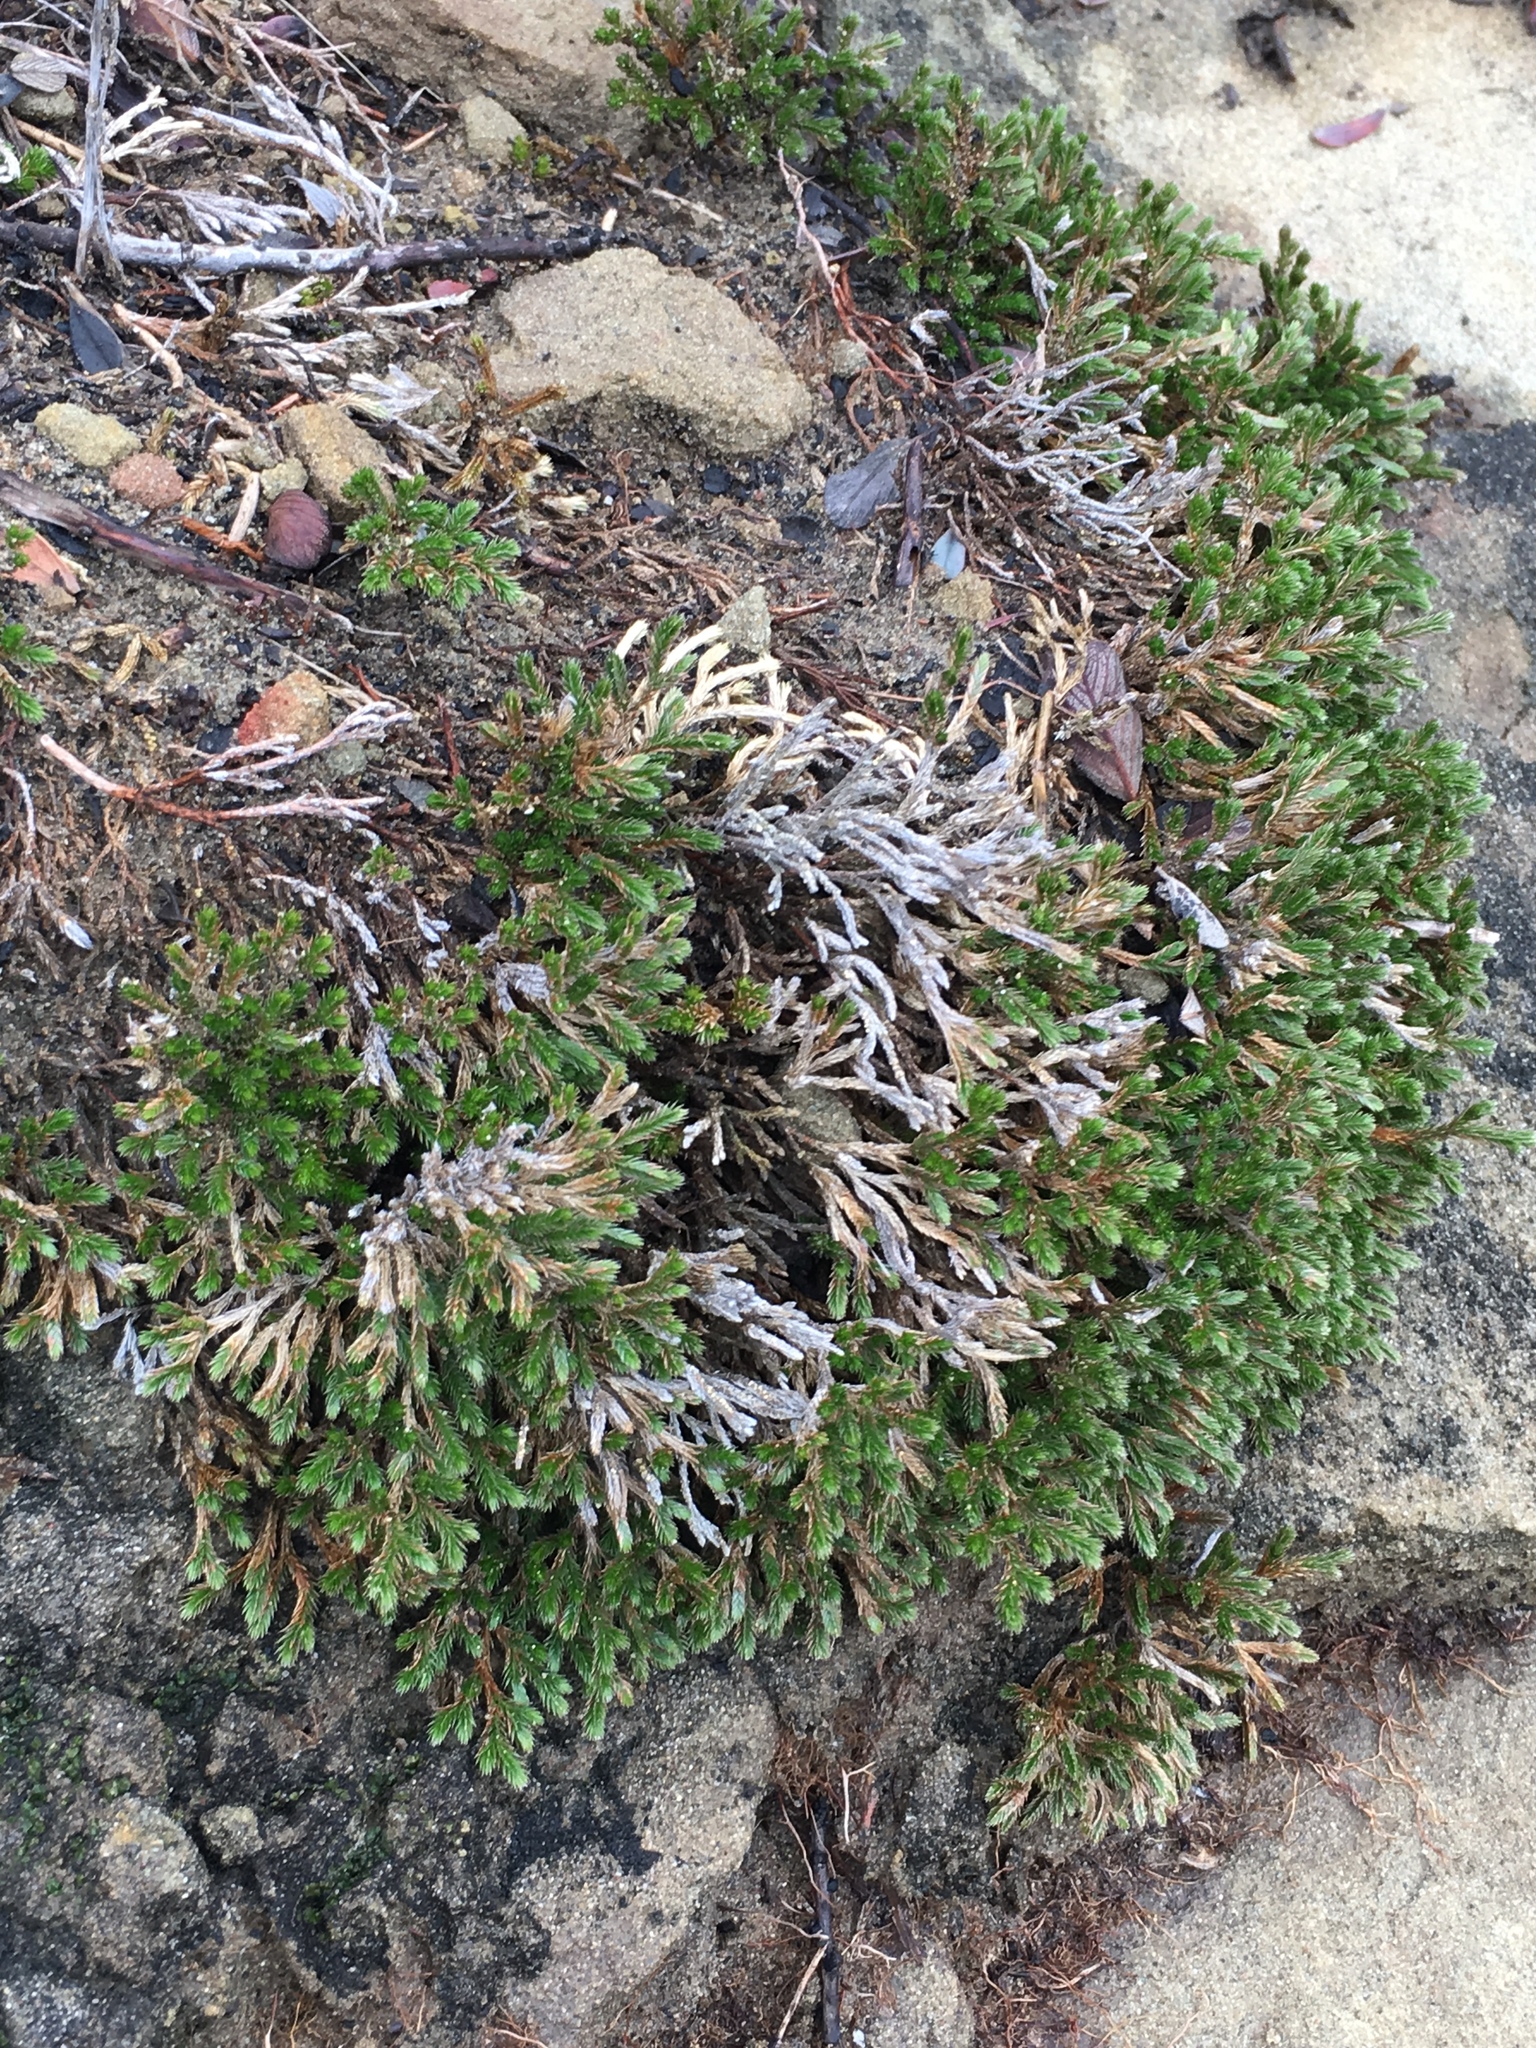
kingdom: Plantae
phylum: Tracheophyta
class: Lycopodiopsida
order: Selaginellales
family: Selaginellaceae
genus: Selaginella
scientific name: Selaginella bigelovii
